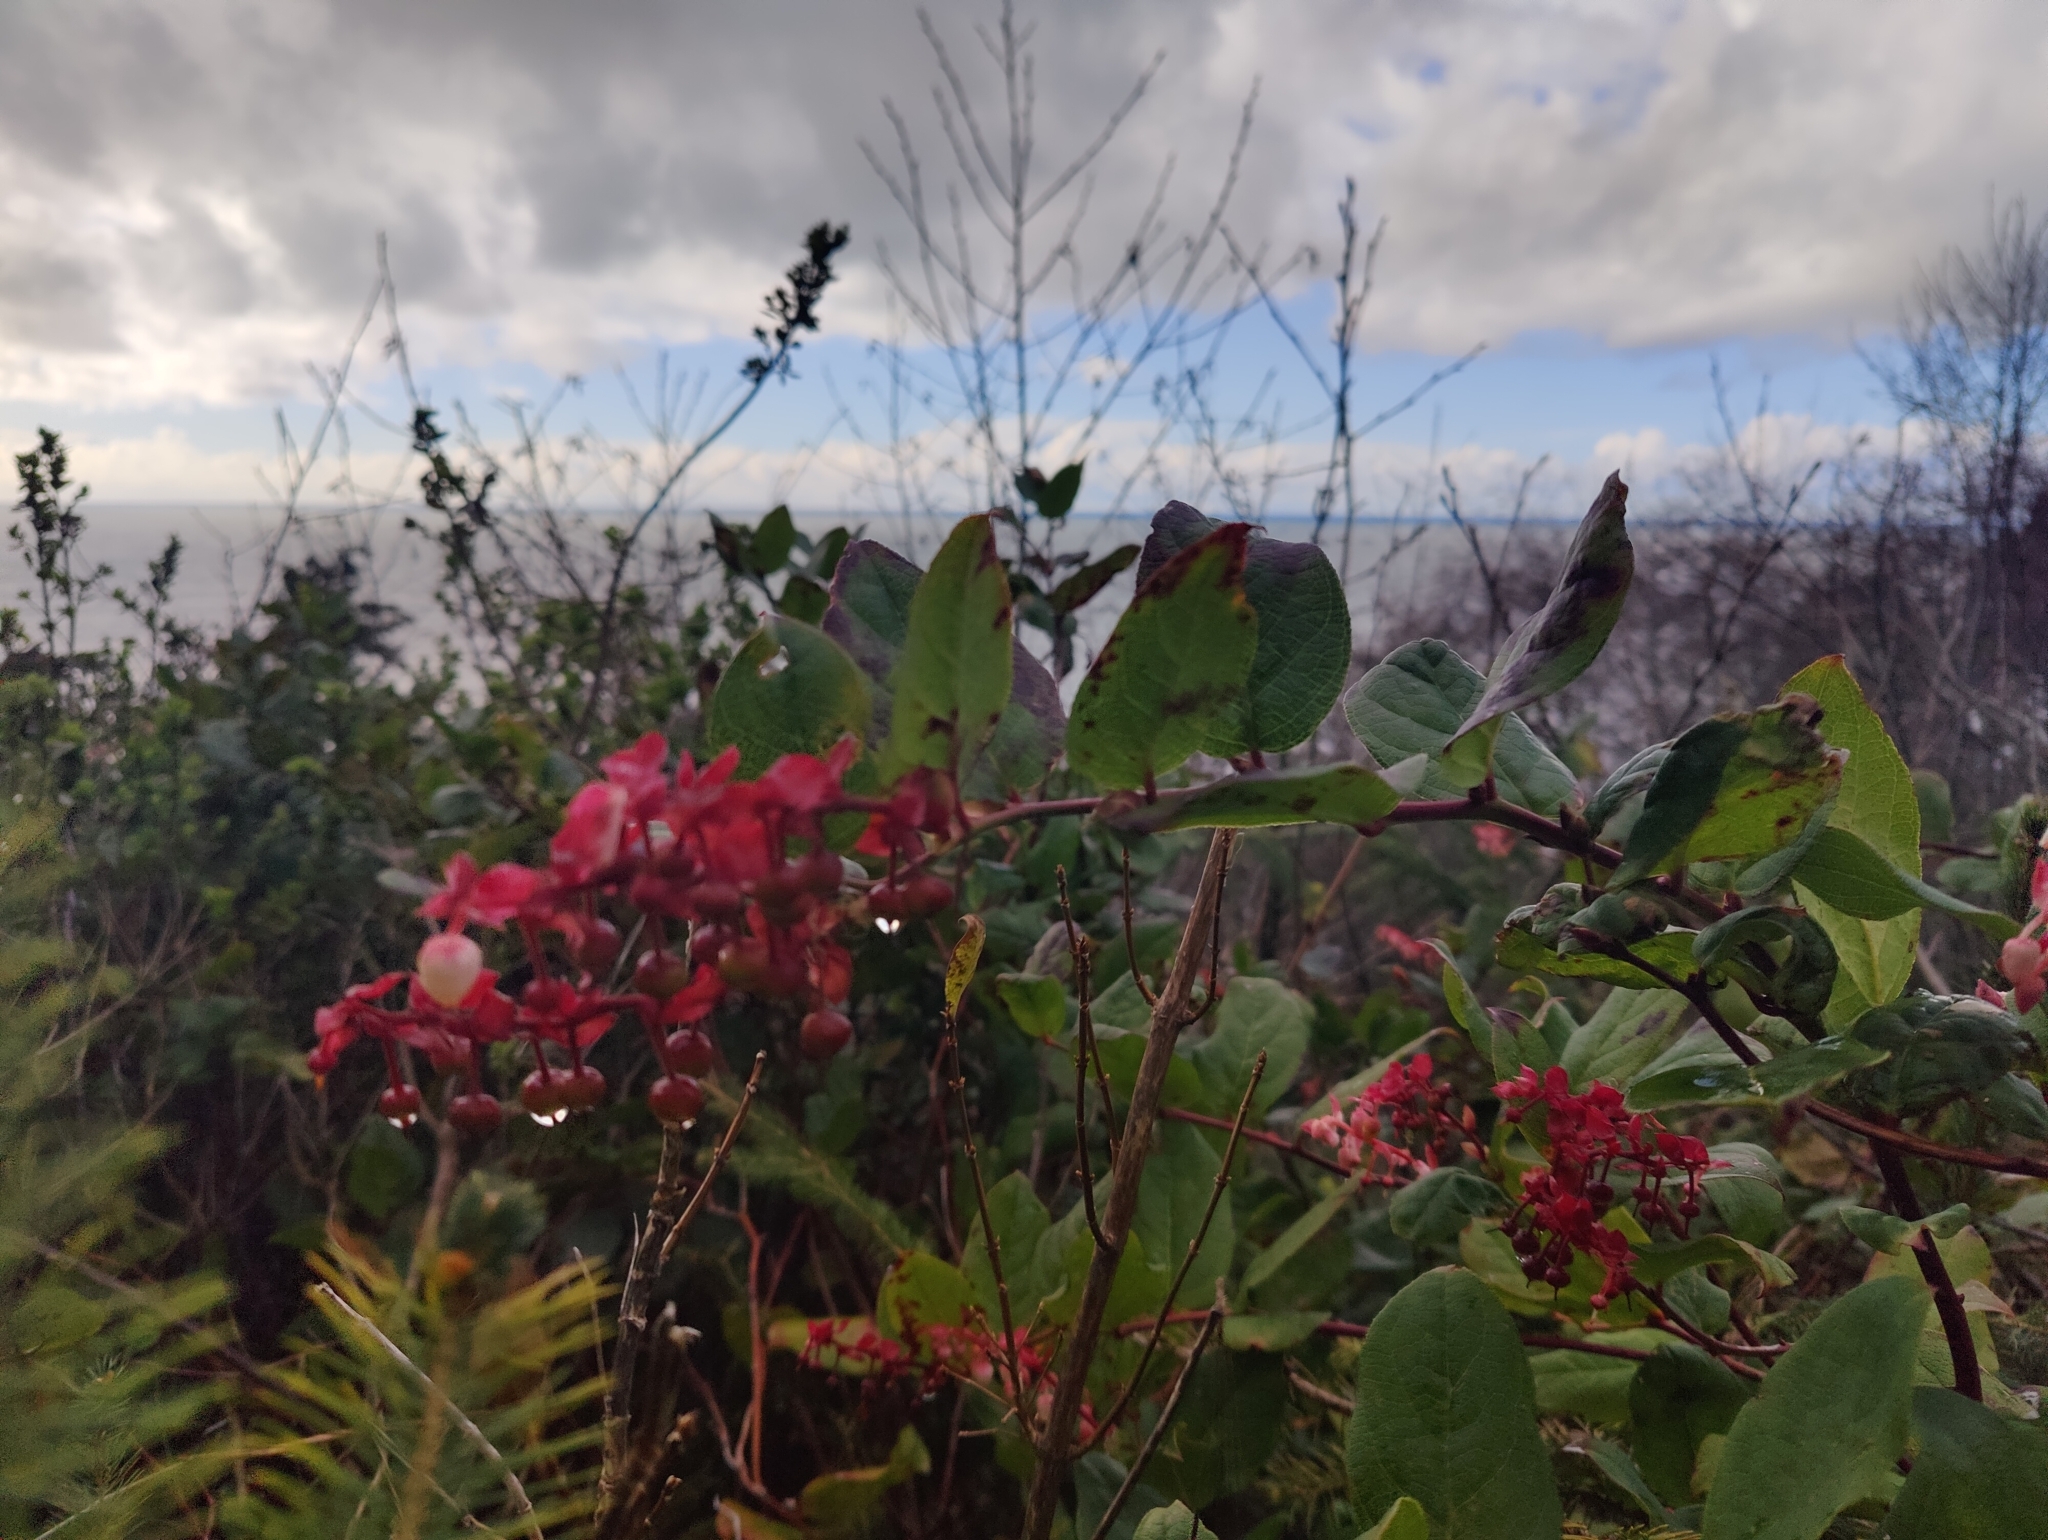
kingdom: Plantae
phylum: Tracheophyta
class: Magnoliopsida
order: Ericales
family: Ericaceae
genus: Gaultheria
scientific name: Gaultheria shallon
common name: Shallon
